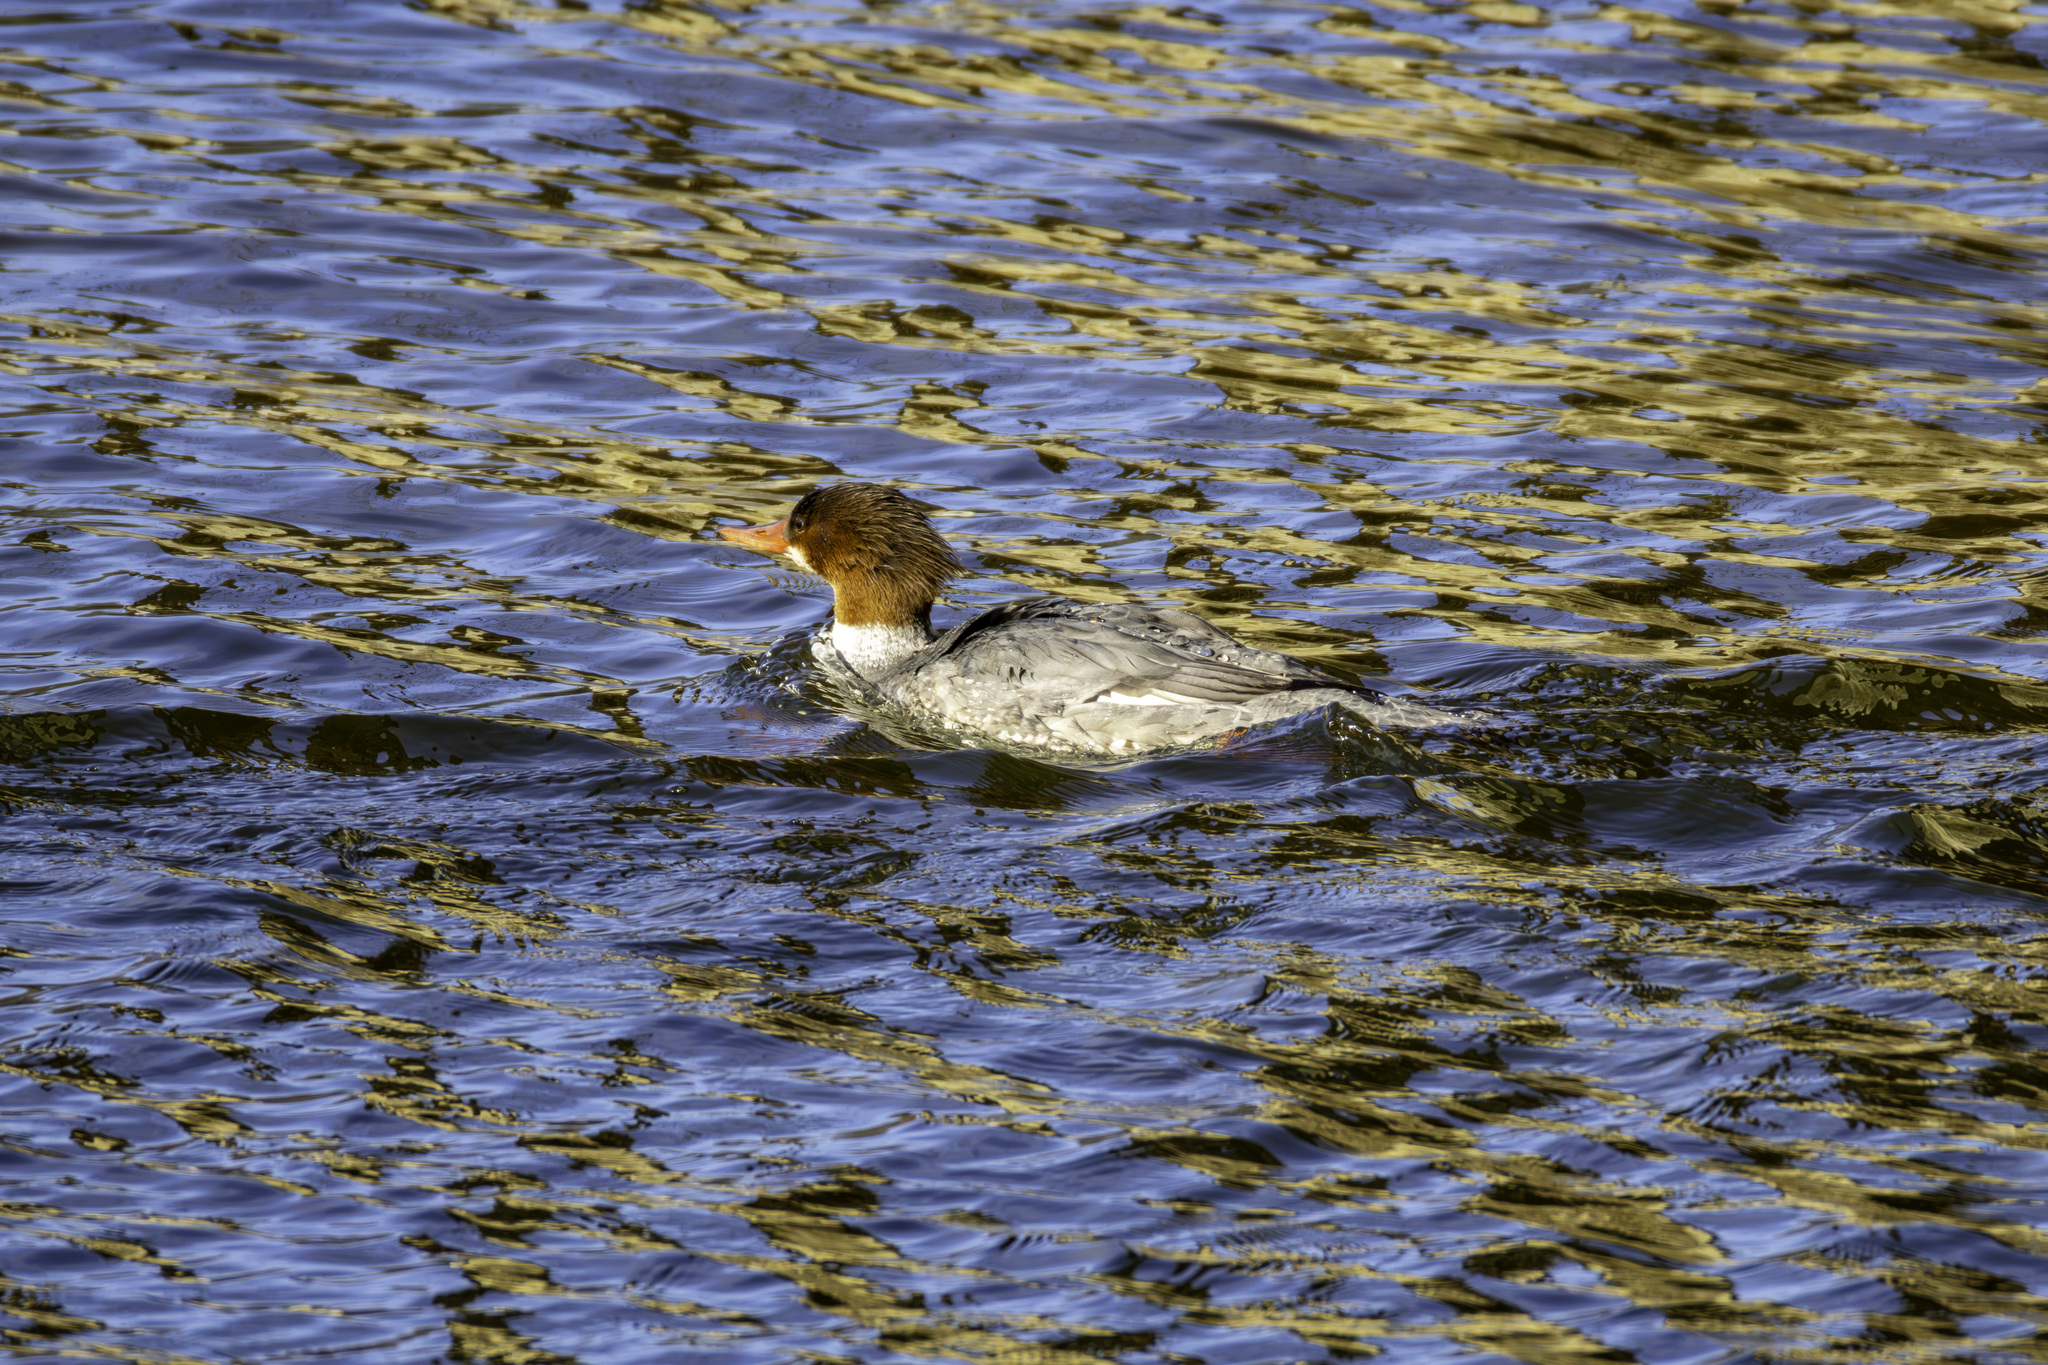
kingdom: Animalia
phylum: Chordata
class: Aves
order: Anseriformes
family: Anatidae
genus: Mergus
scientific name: Mergus merganser
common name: Common merganser
